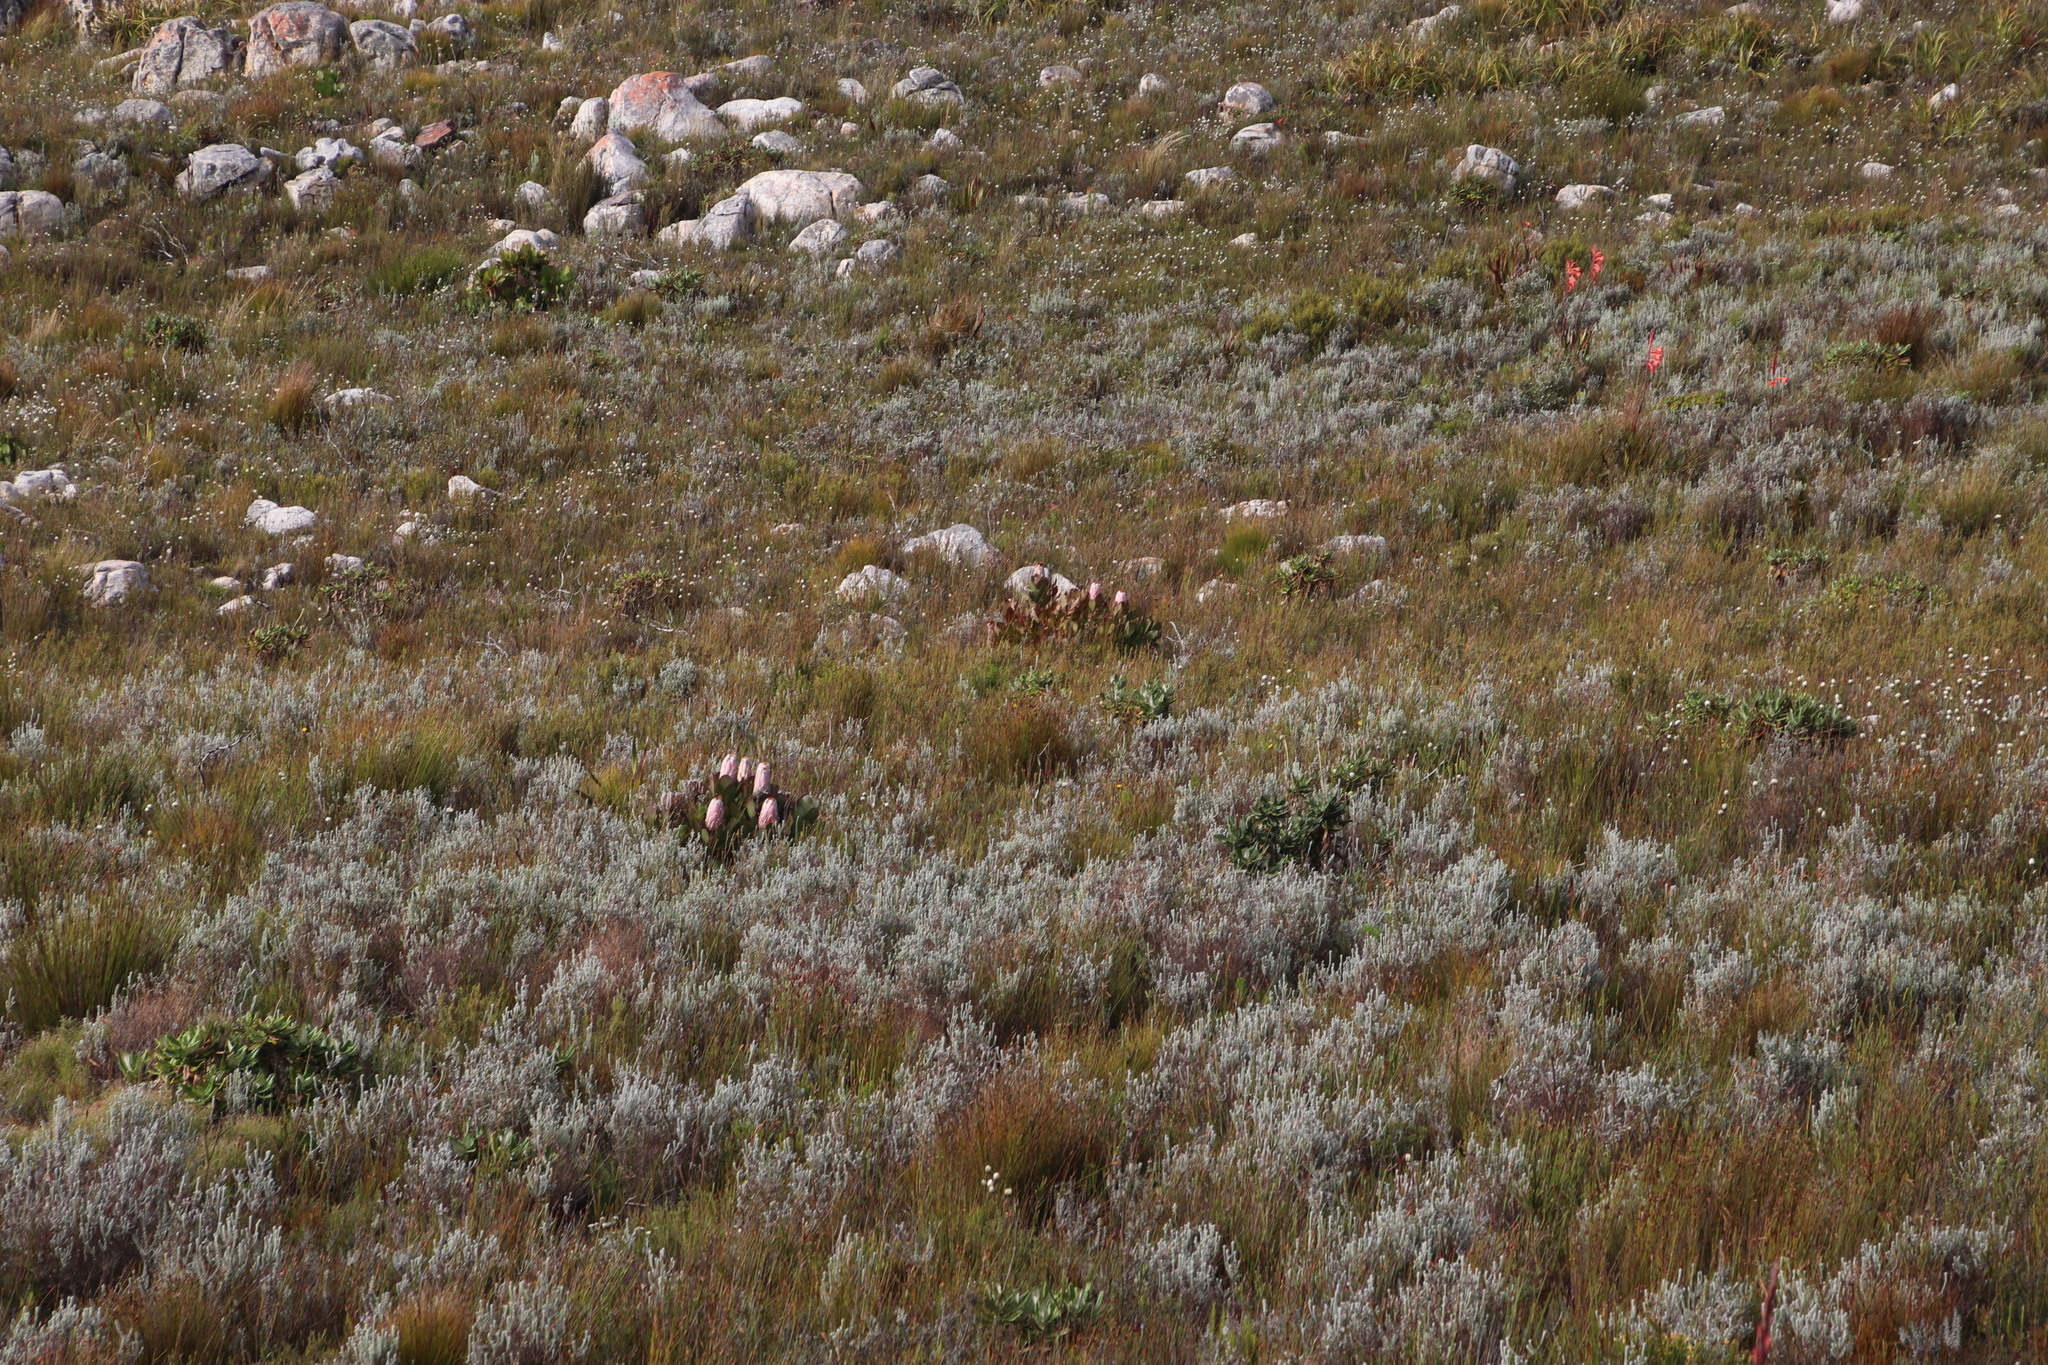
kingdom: Plantae
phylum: Tracheophyta
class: Magnoliopsida
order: Proteales
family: Proteaceae
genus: Protea
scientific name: Protea speciosa
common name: Brown-beard sugarbush
